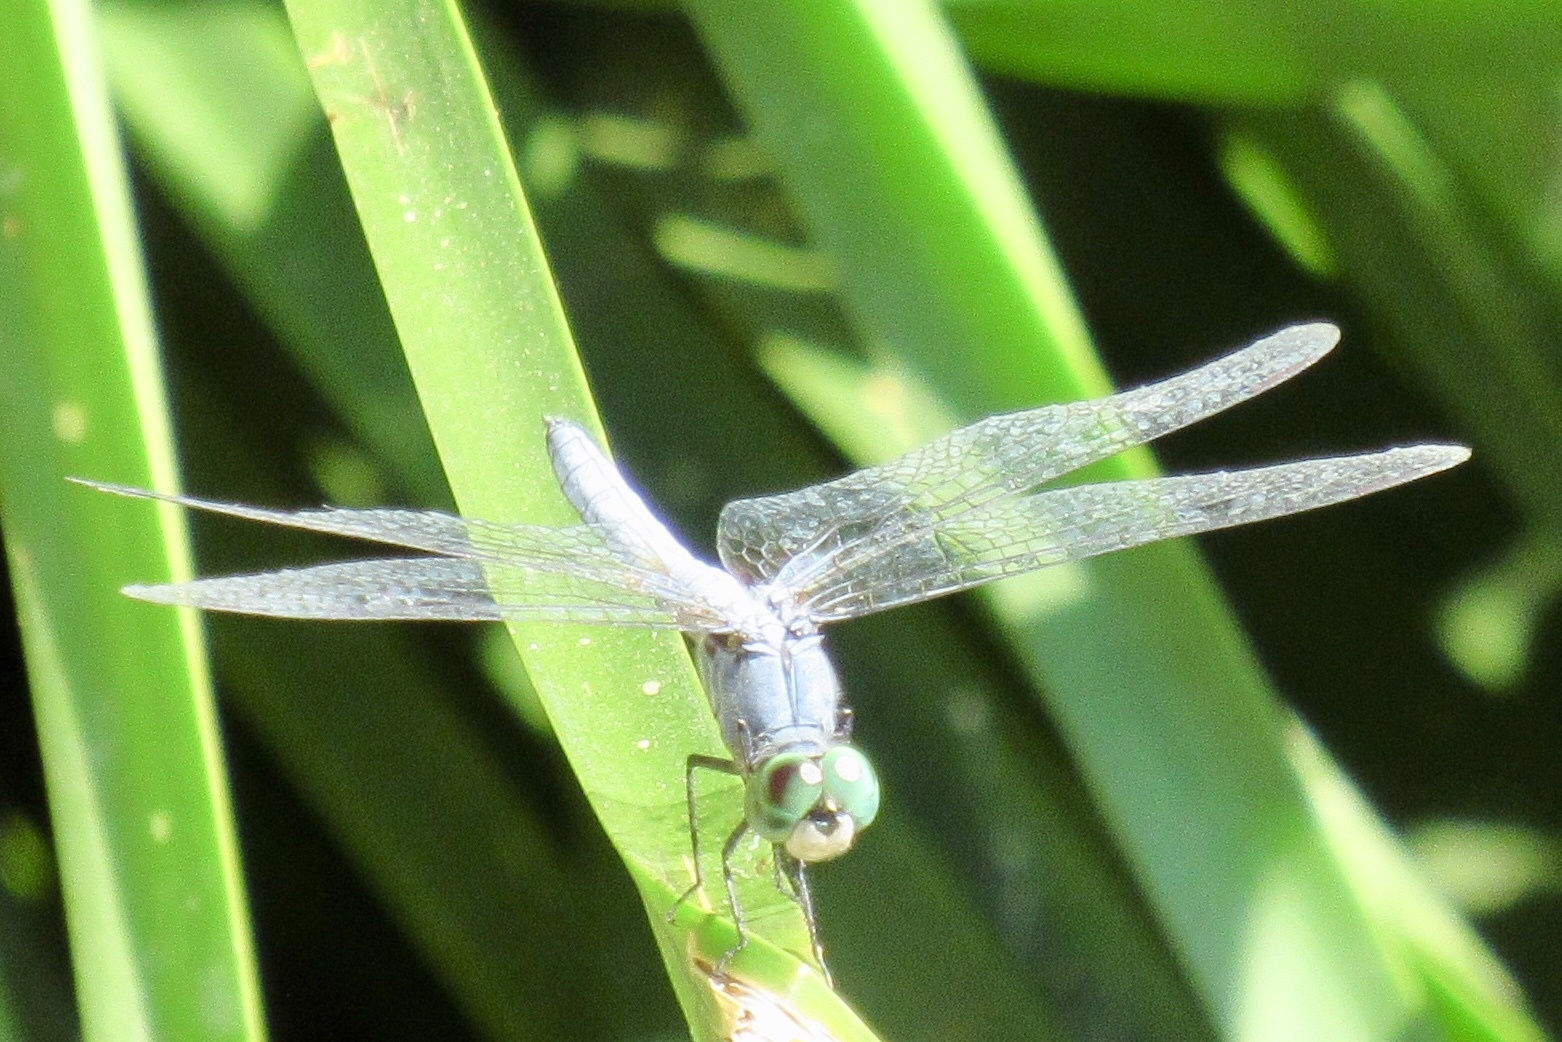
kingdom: Animalia
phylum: Arthropoda
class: Insecta
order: Odonata
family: Libellulidae
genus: Pachydiplax
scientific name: Pachydiplax longipennis
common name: Blue dasher
